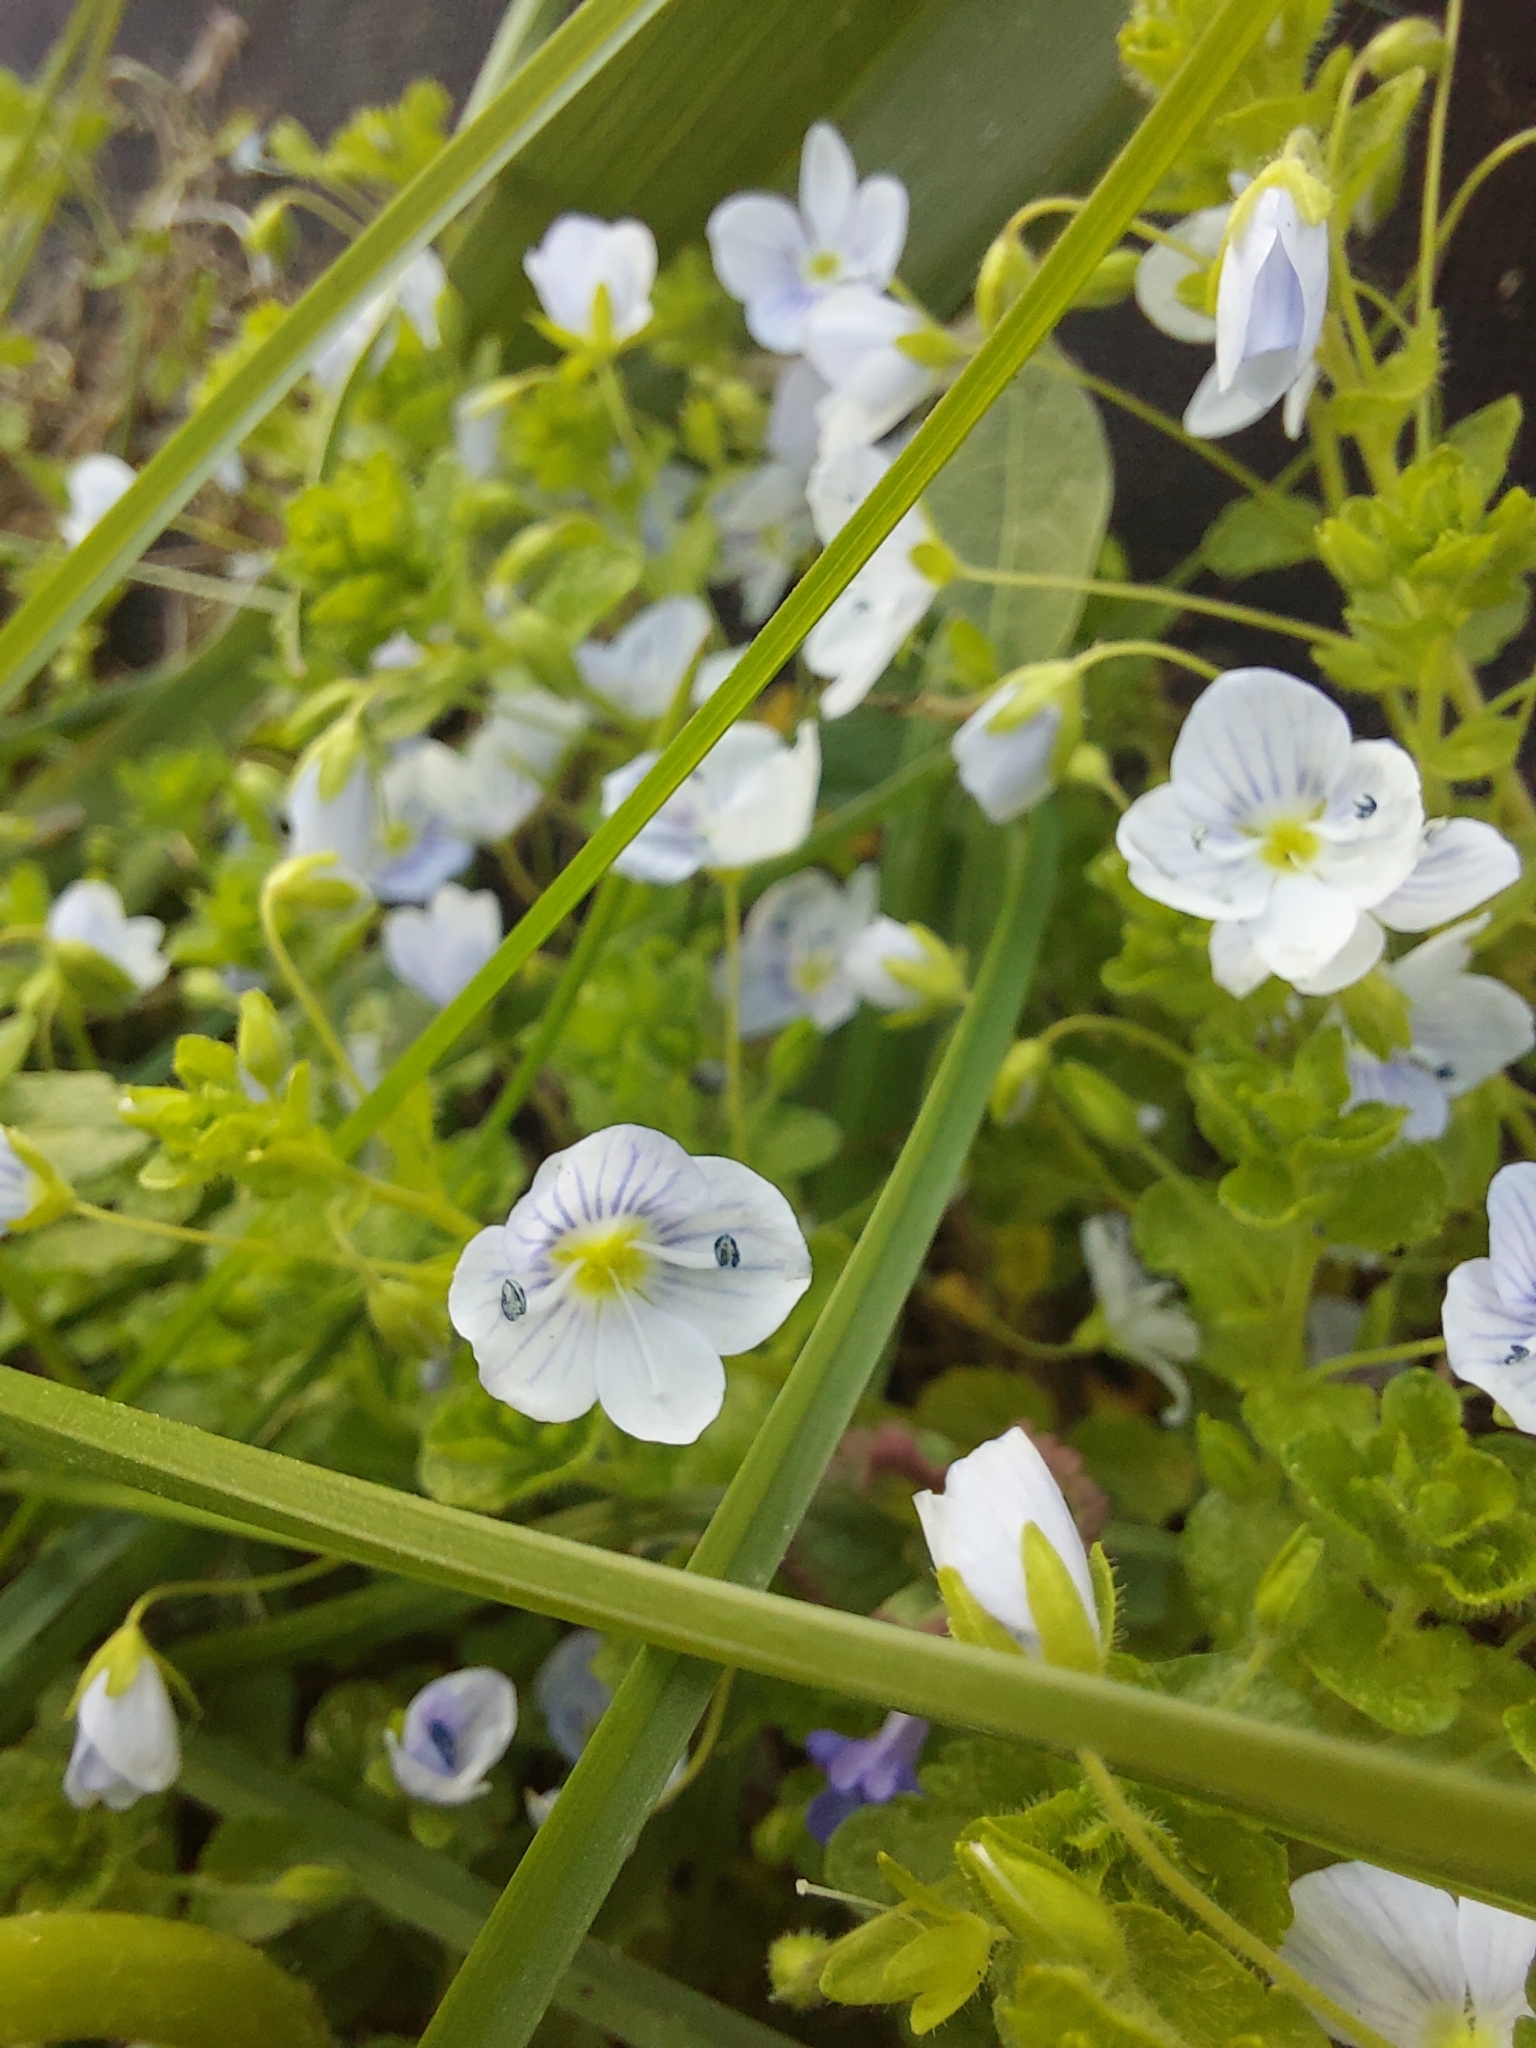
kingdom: Plantae
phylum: Tracheophyta
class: Magnoliopsida
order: Lamiales
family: Plantaginaceae
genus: Veronica
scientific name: Veronica filiformis
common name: Slender speedwell
